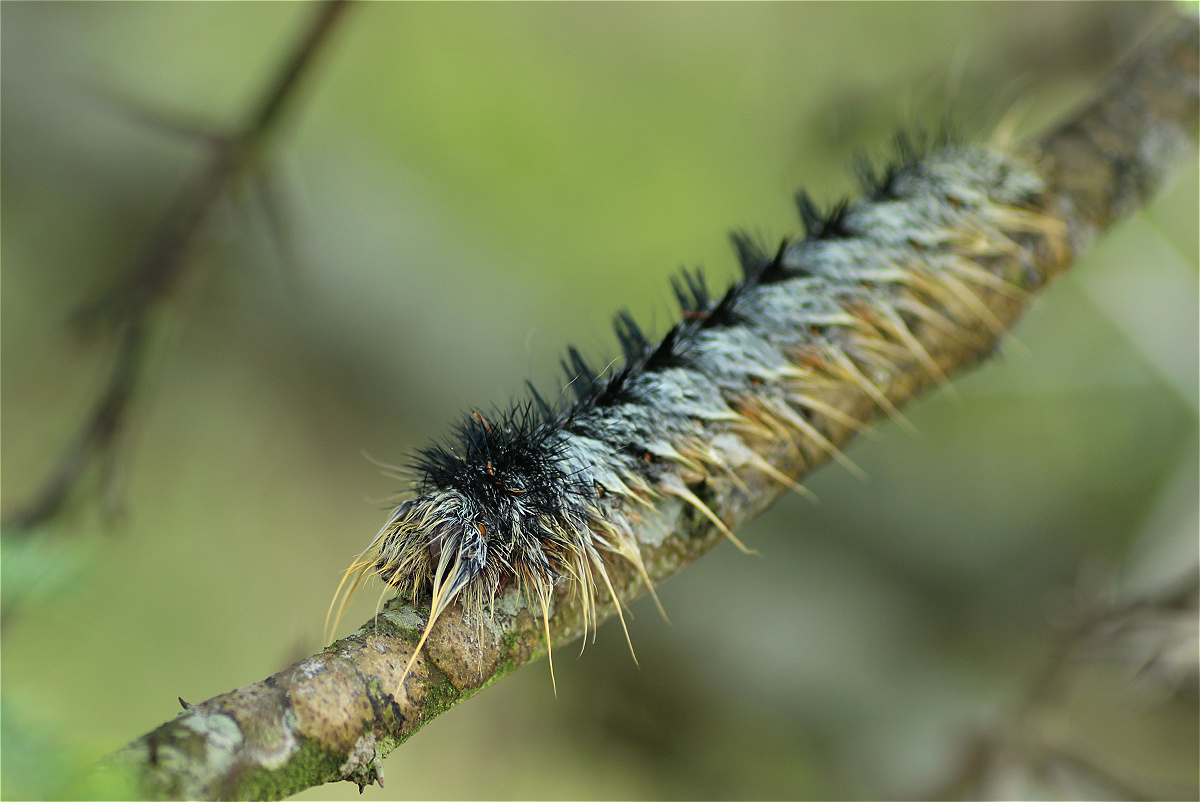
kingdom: Animalia
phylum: Arthropoda
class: Insecta
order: Lepidoptera
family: Lasiocampidae
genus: Gonometa
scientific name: Gonometa postica
